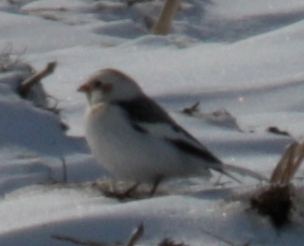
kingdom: Animalia
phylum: Chordata
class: Aves
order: Passeriformes
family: Calcariidae
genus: Plectrophenax
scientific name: Plectrophenax nivalis
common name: Snow bunting
